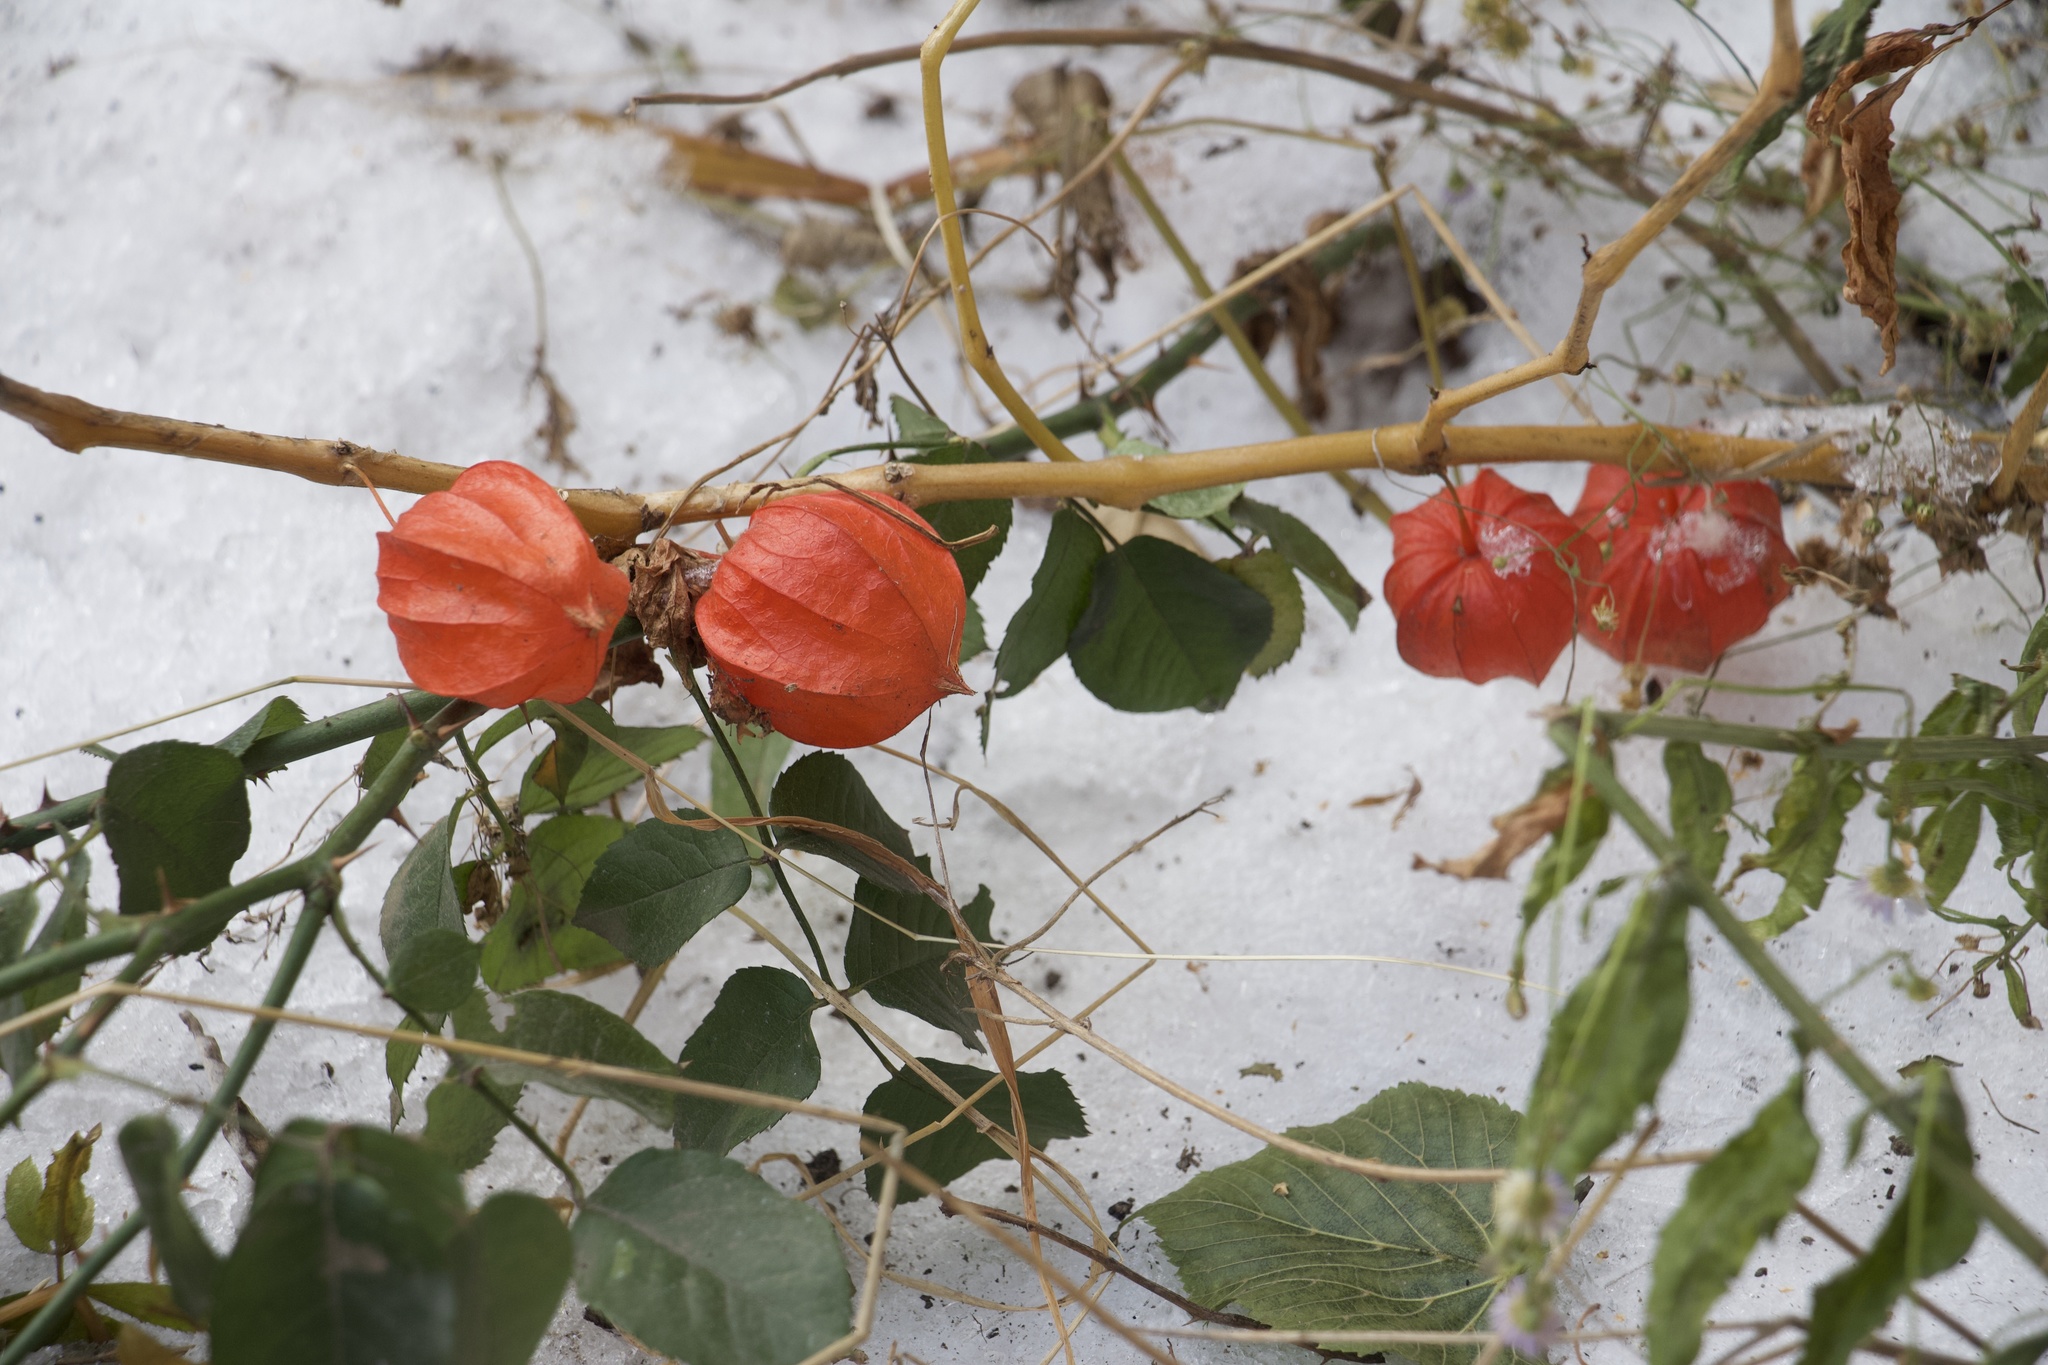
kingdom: Plantae
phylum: Tracheophyta
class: Magnoliopsida
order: Solanales
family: Solanaceae
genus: Alkekengi
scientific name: Alkekengi officinarum
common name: Japanese-lantern
